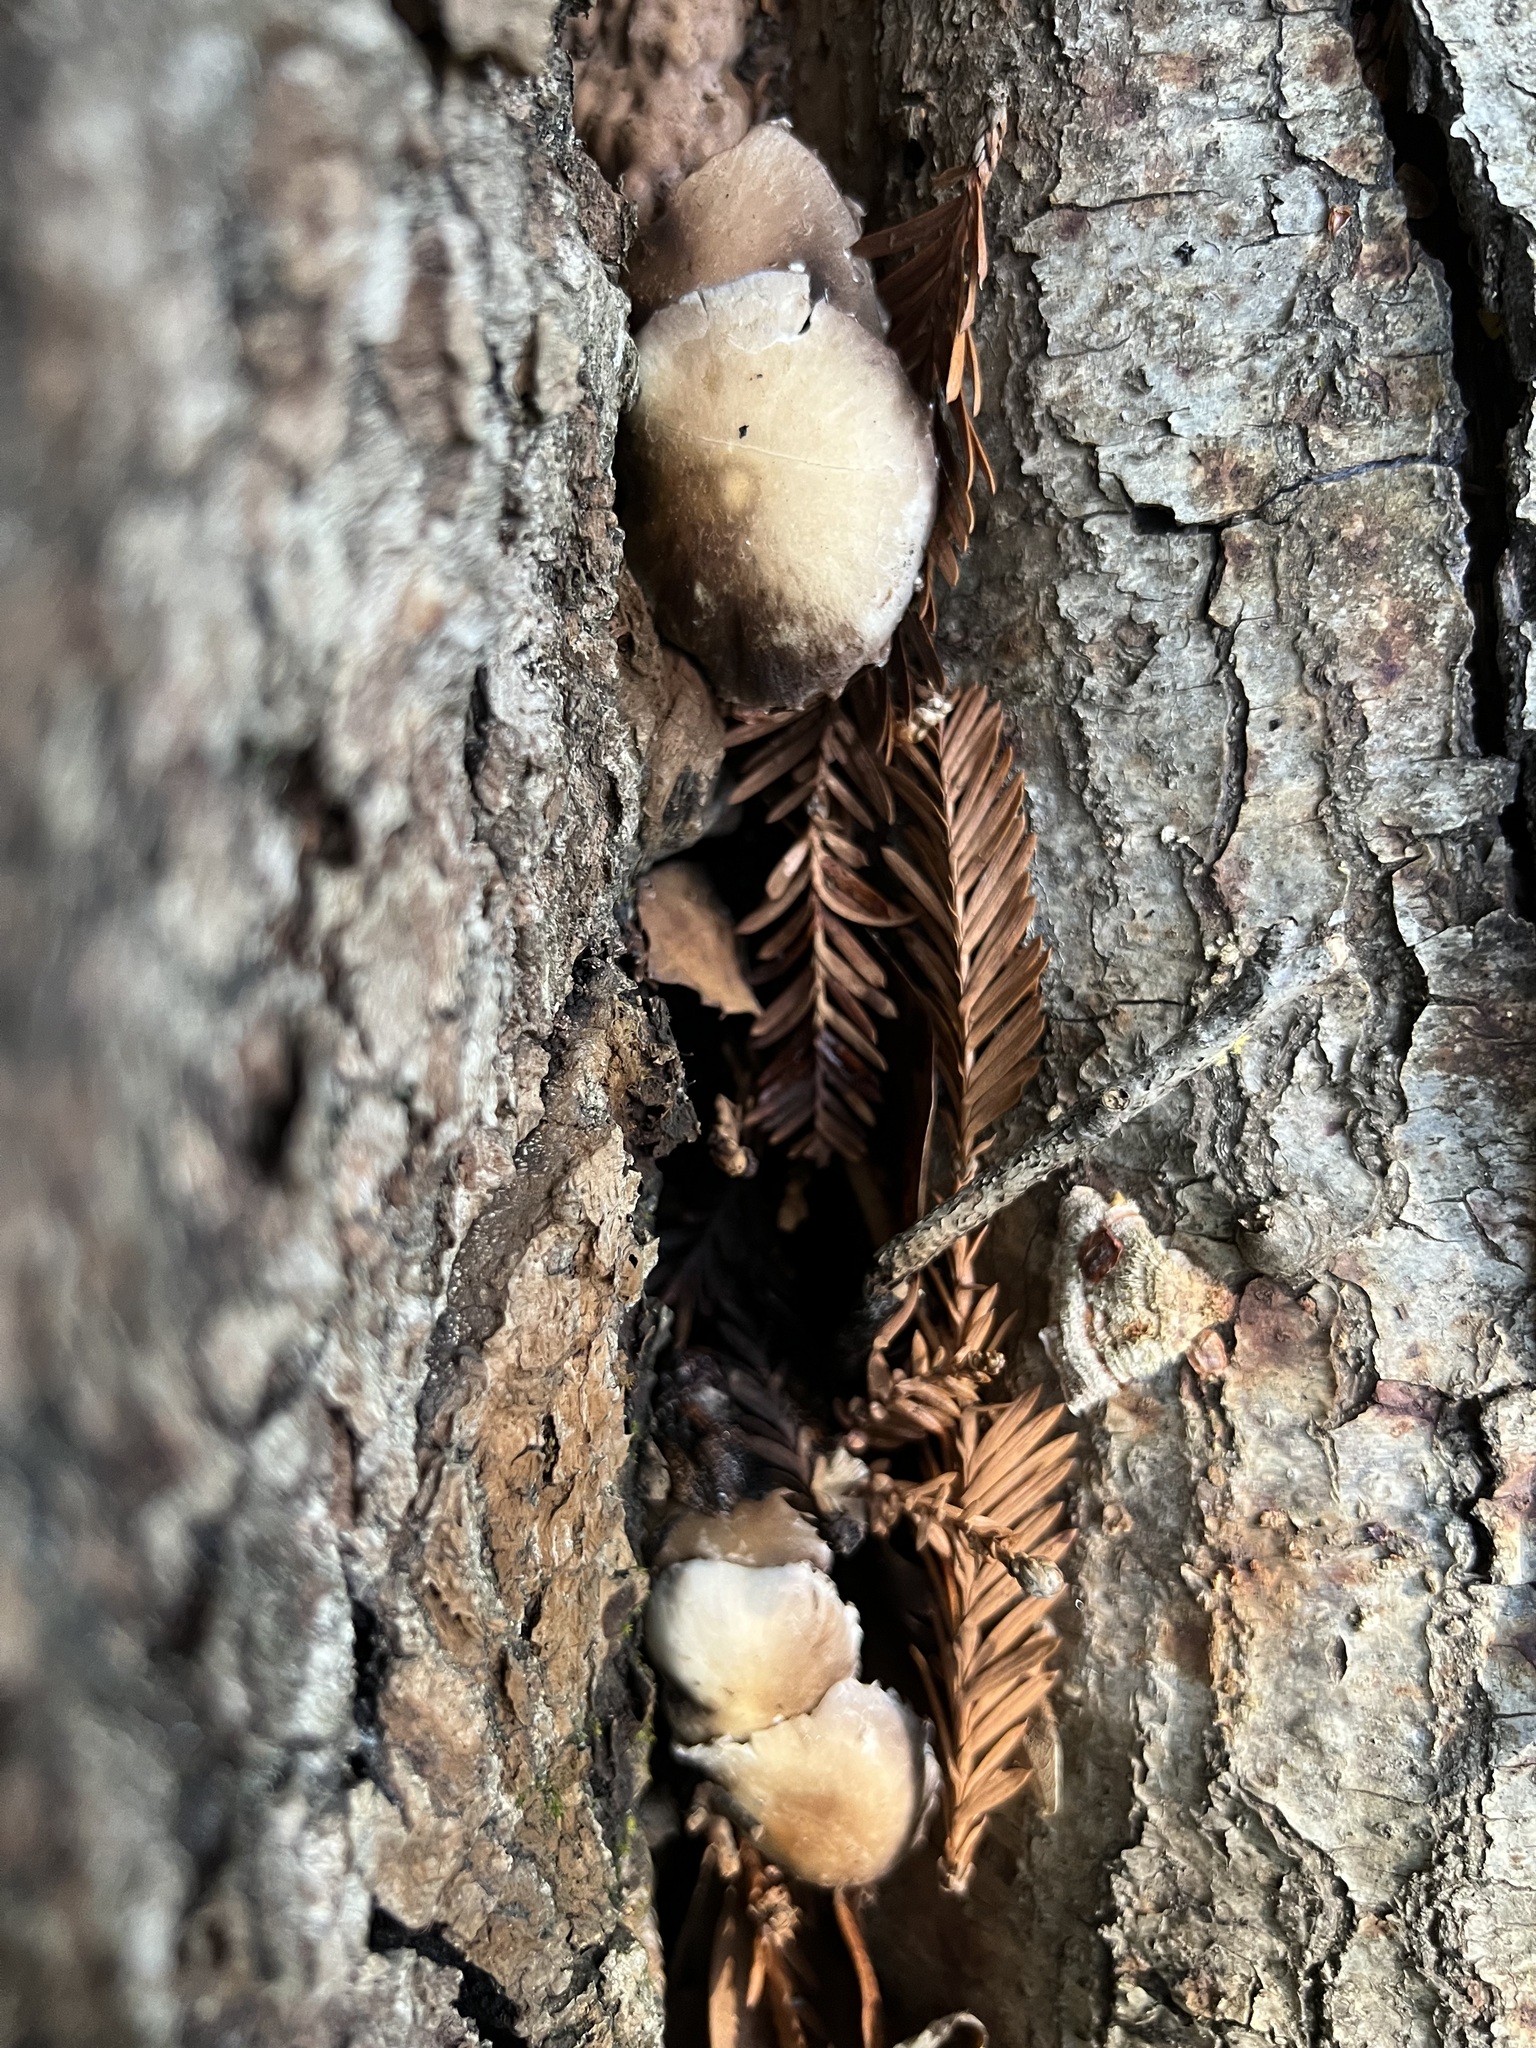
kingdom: Fungi
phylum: Basidiomycota
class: Agaricomycetes
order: Agaricales
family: Psathyrellaceae
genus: Candolleomyces
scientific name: Candolleomyces candolleanus
